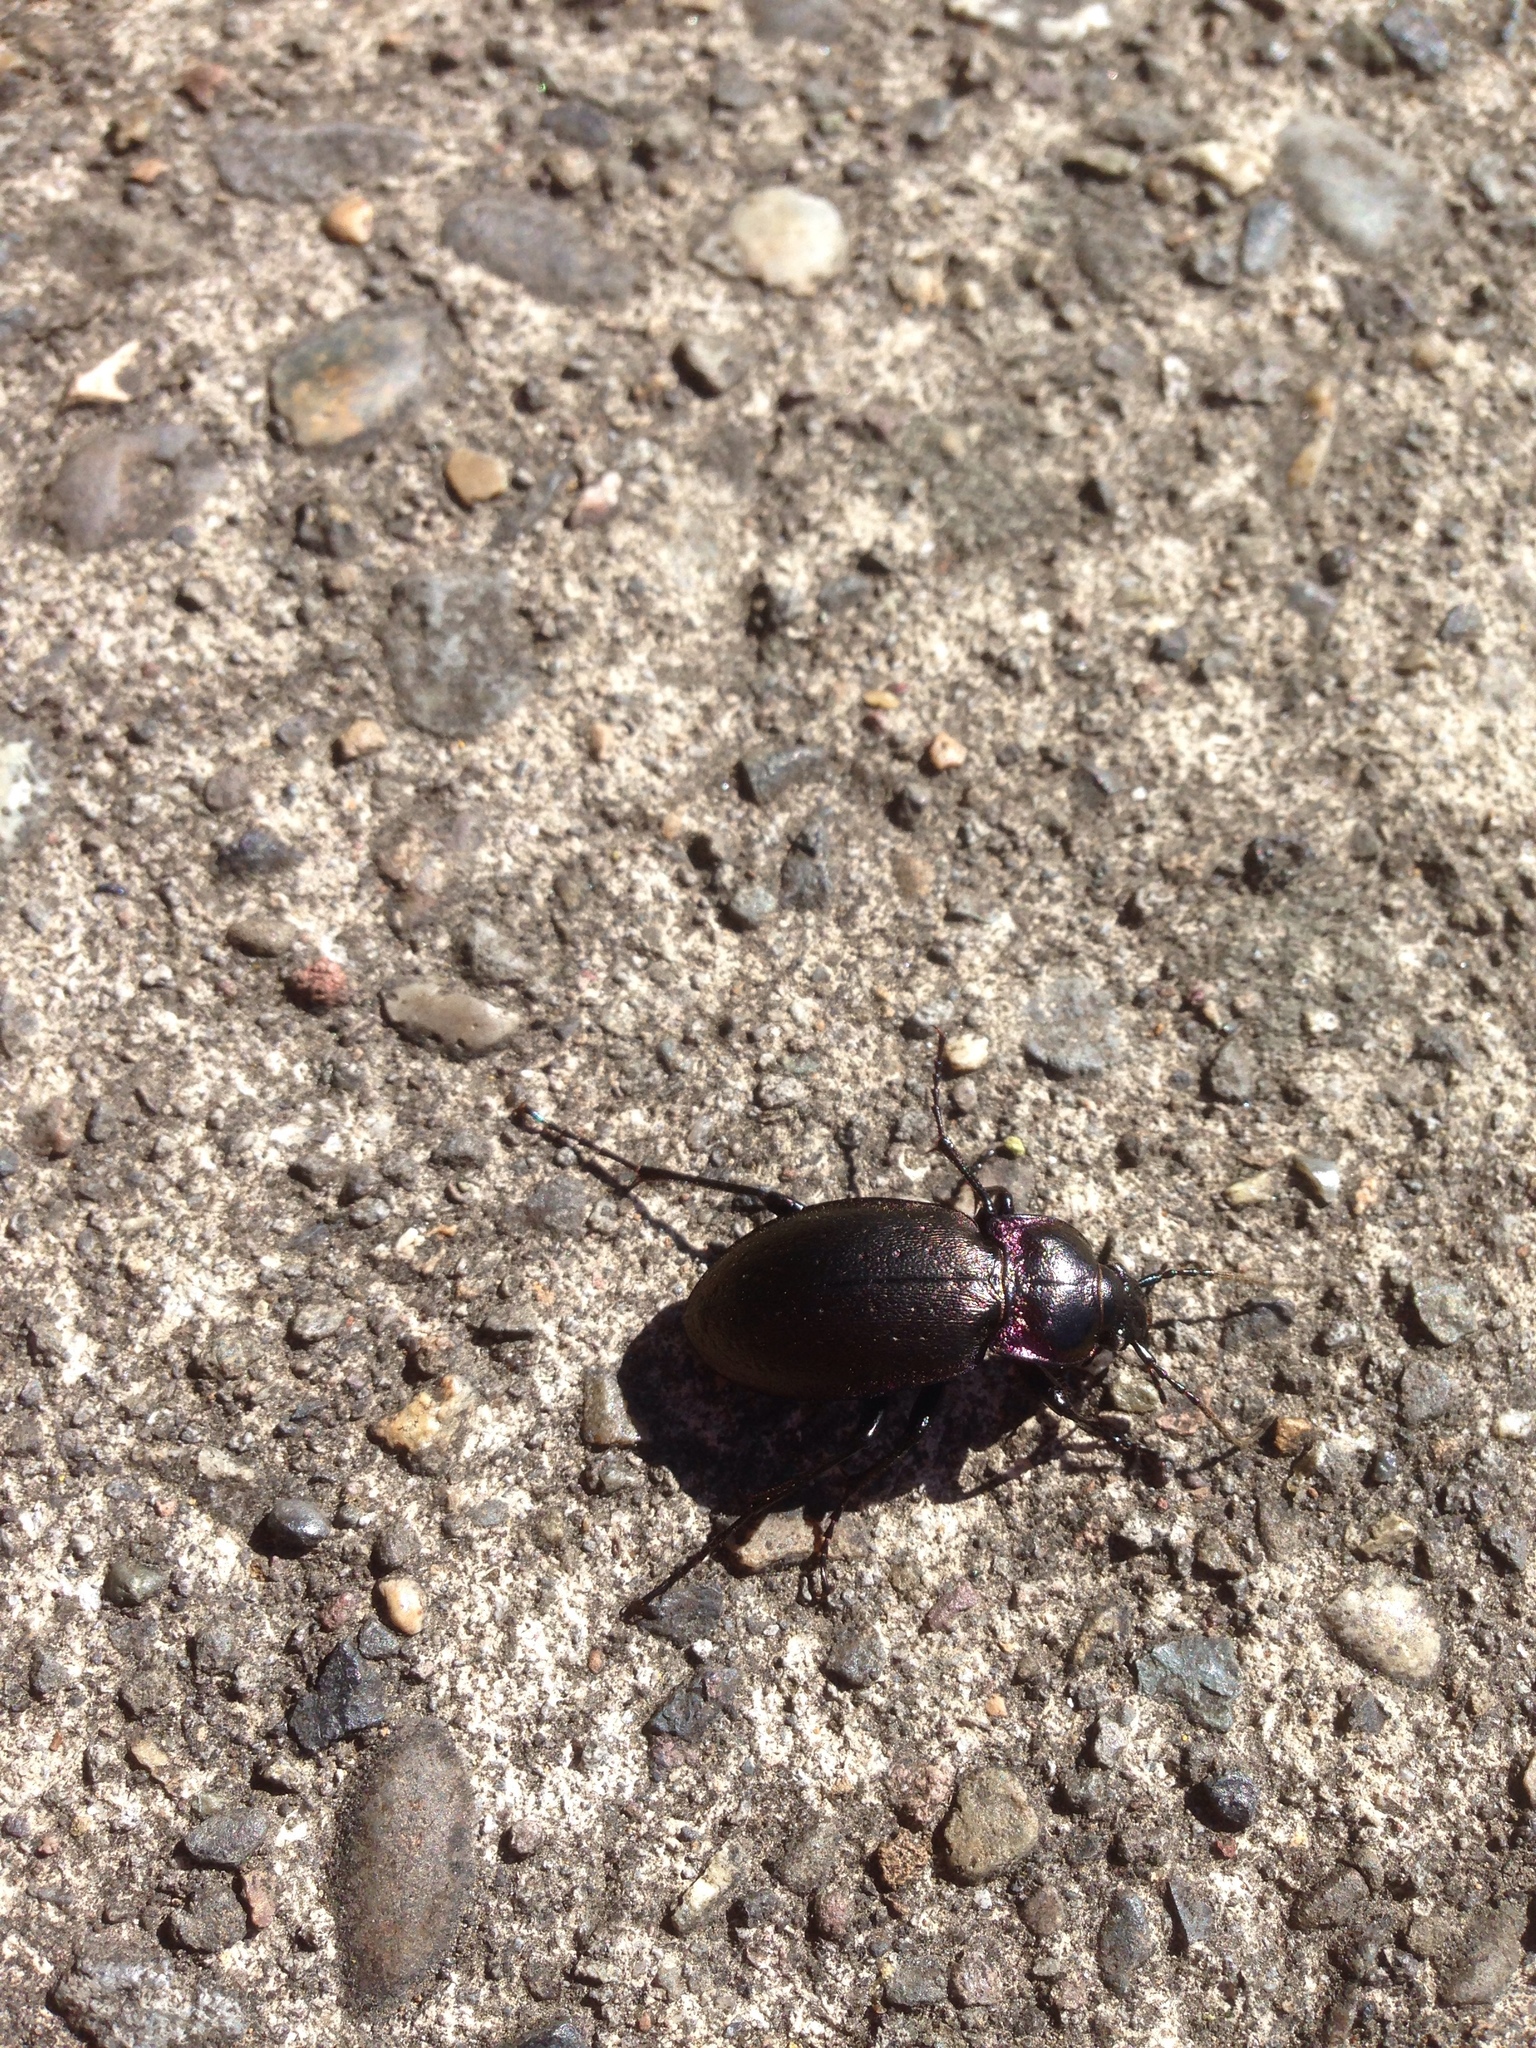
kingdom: Animalia
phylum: Arthropoda
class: Insecta
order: Coleoptera
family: Carabidae
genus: Carabus
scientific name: Carabus nemoralis
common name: European ground beetle
